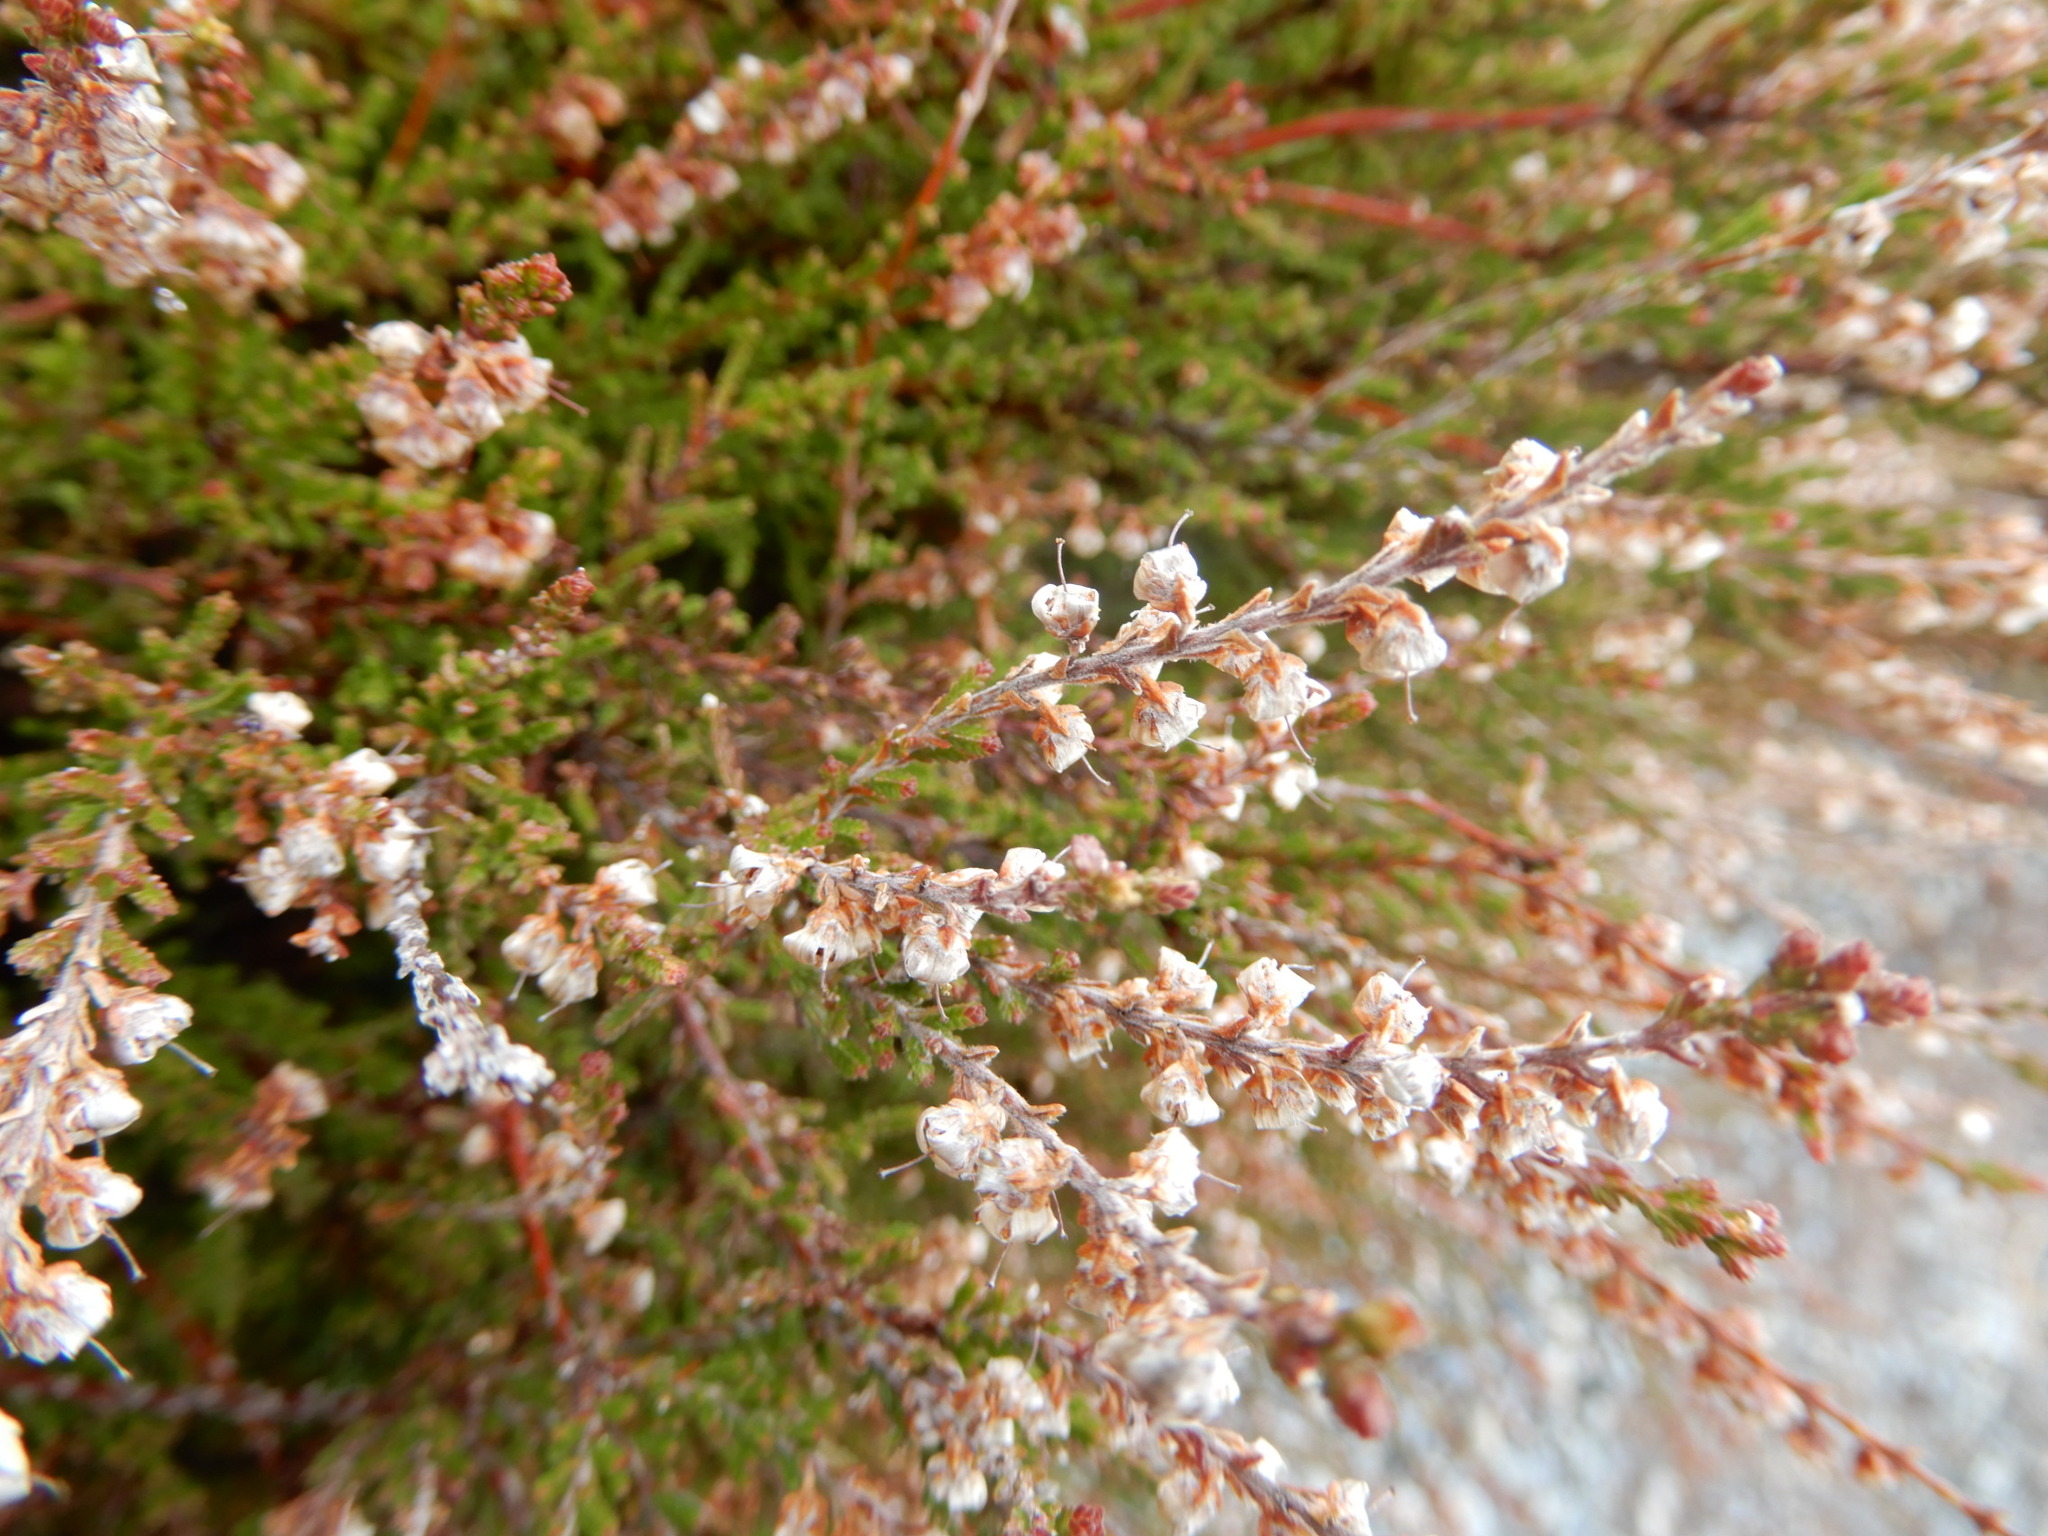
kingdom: Plantae
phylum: Tracheophyta
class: Magnoliopsida
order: Ericales
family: Ericaceae
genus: Calluna
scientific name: Calluna vulgaris
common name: Heather
